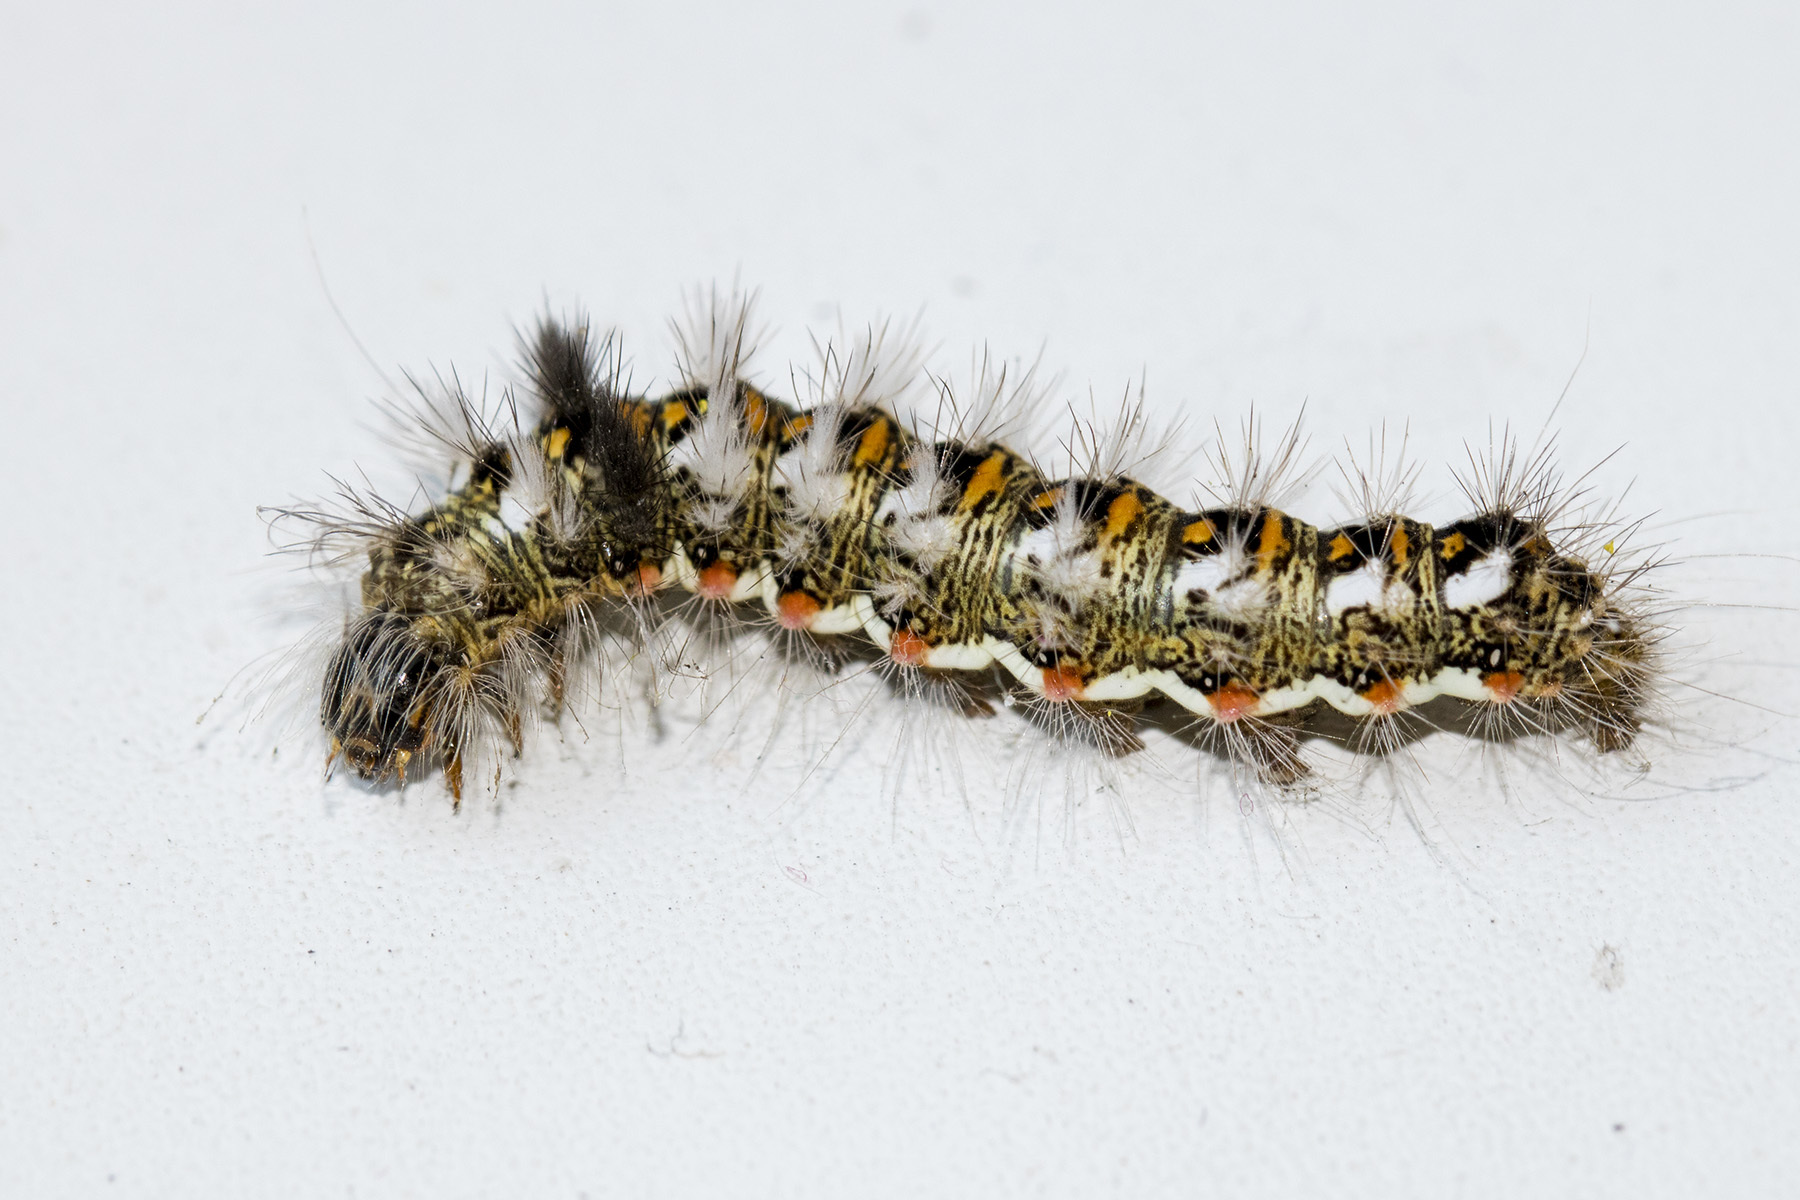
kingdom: Animalia
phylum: Arthropoda
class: Insecta
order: Lepidoptera
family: Noctuidae
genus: Acronicta
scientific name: Acronicta thoracica
